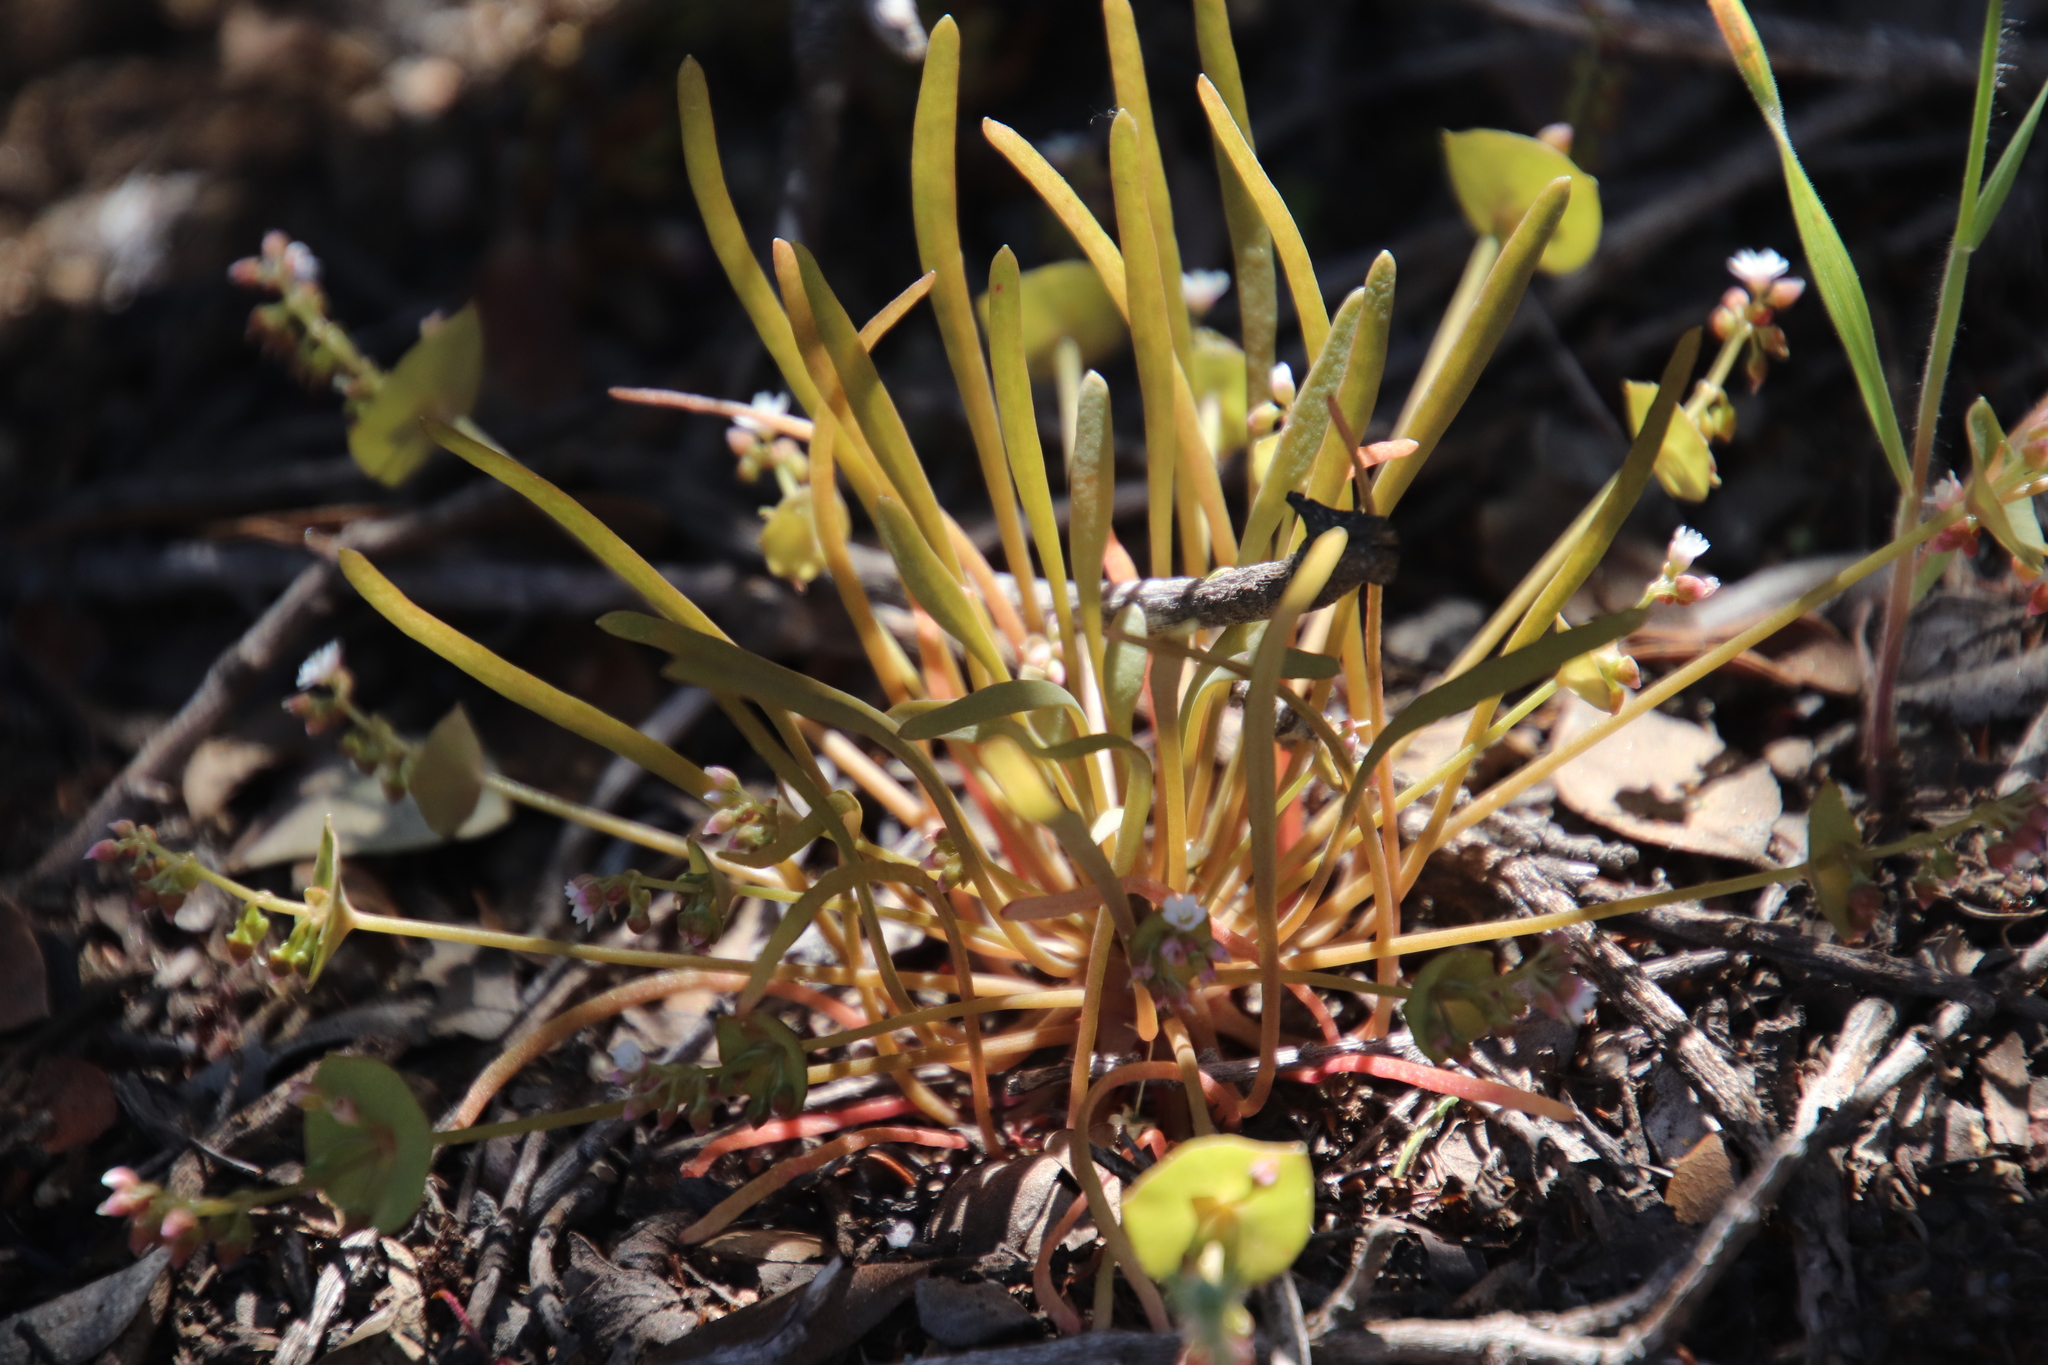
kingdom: Plantae
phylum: Tracheophyta
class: Magnoliopsida
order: Caryophyllales
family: Montiaceae
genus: Claytonia
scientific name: Claytonia parviflora
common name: Indian-lettuce
